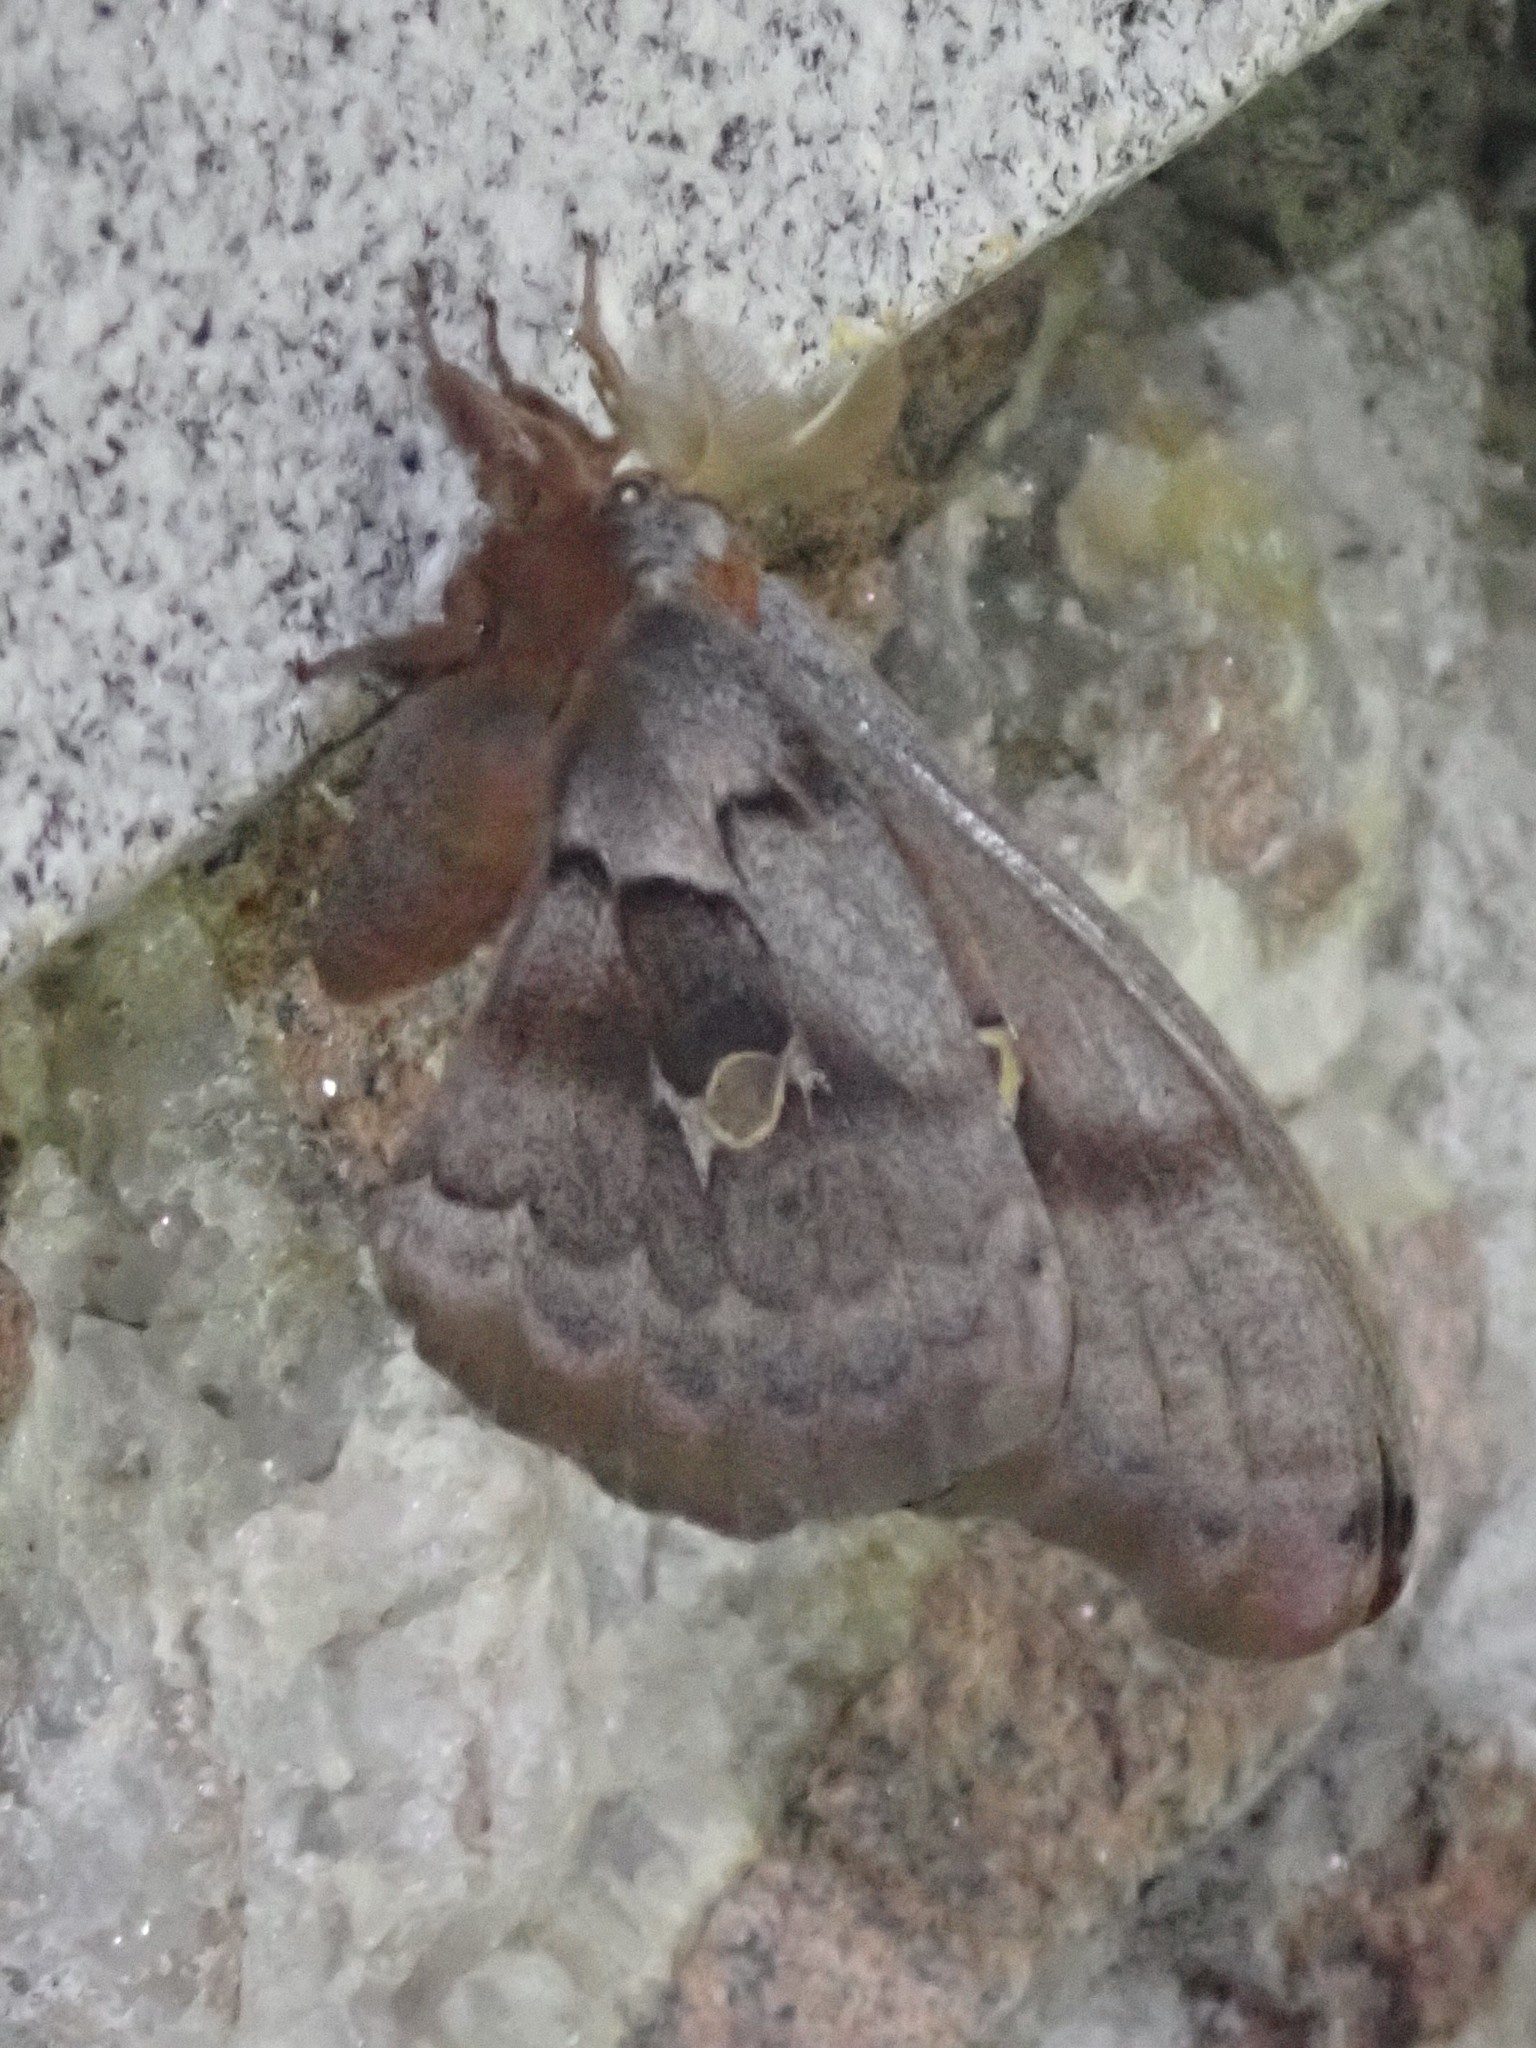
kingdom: Animalia
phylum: Arthropoda
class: Insecta
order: Lepidoptera
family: Saturniidae
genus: Antheraea
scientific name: Antheraea polyphemus
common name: Polyphemus moth
